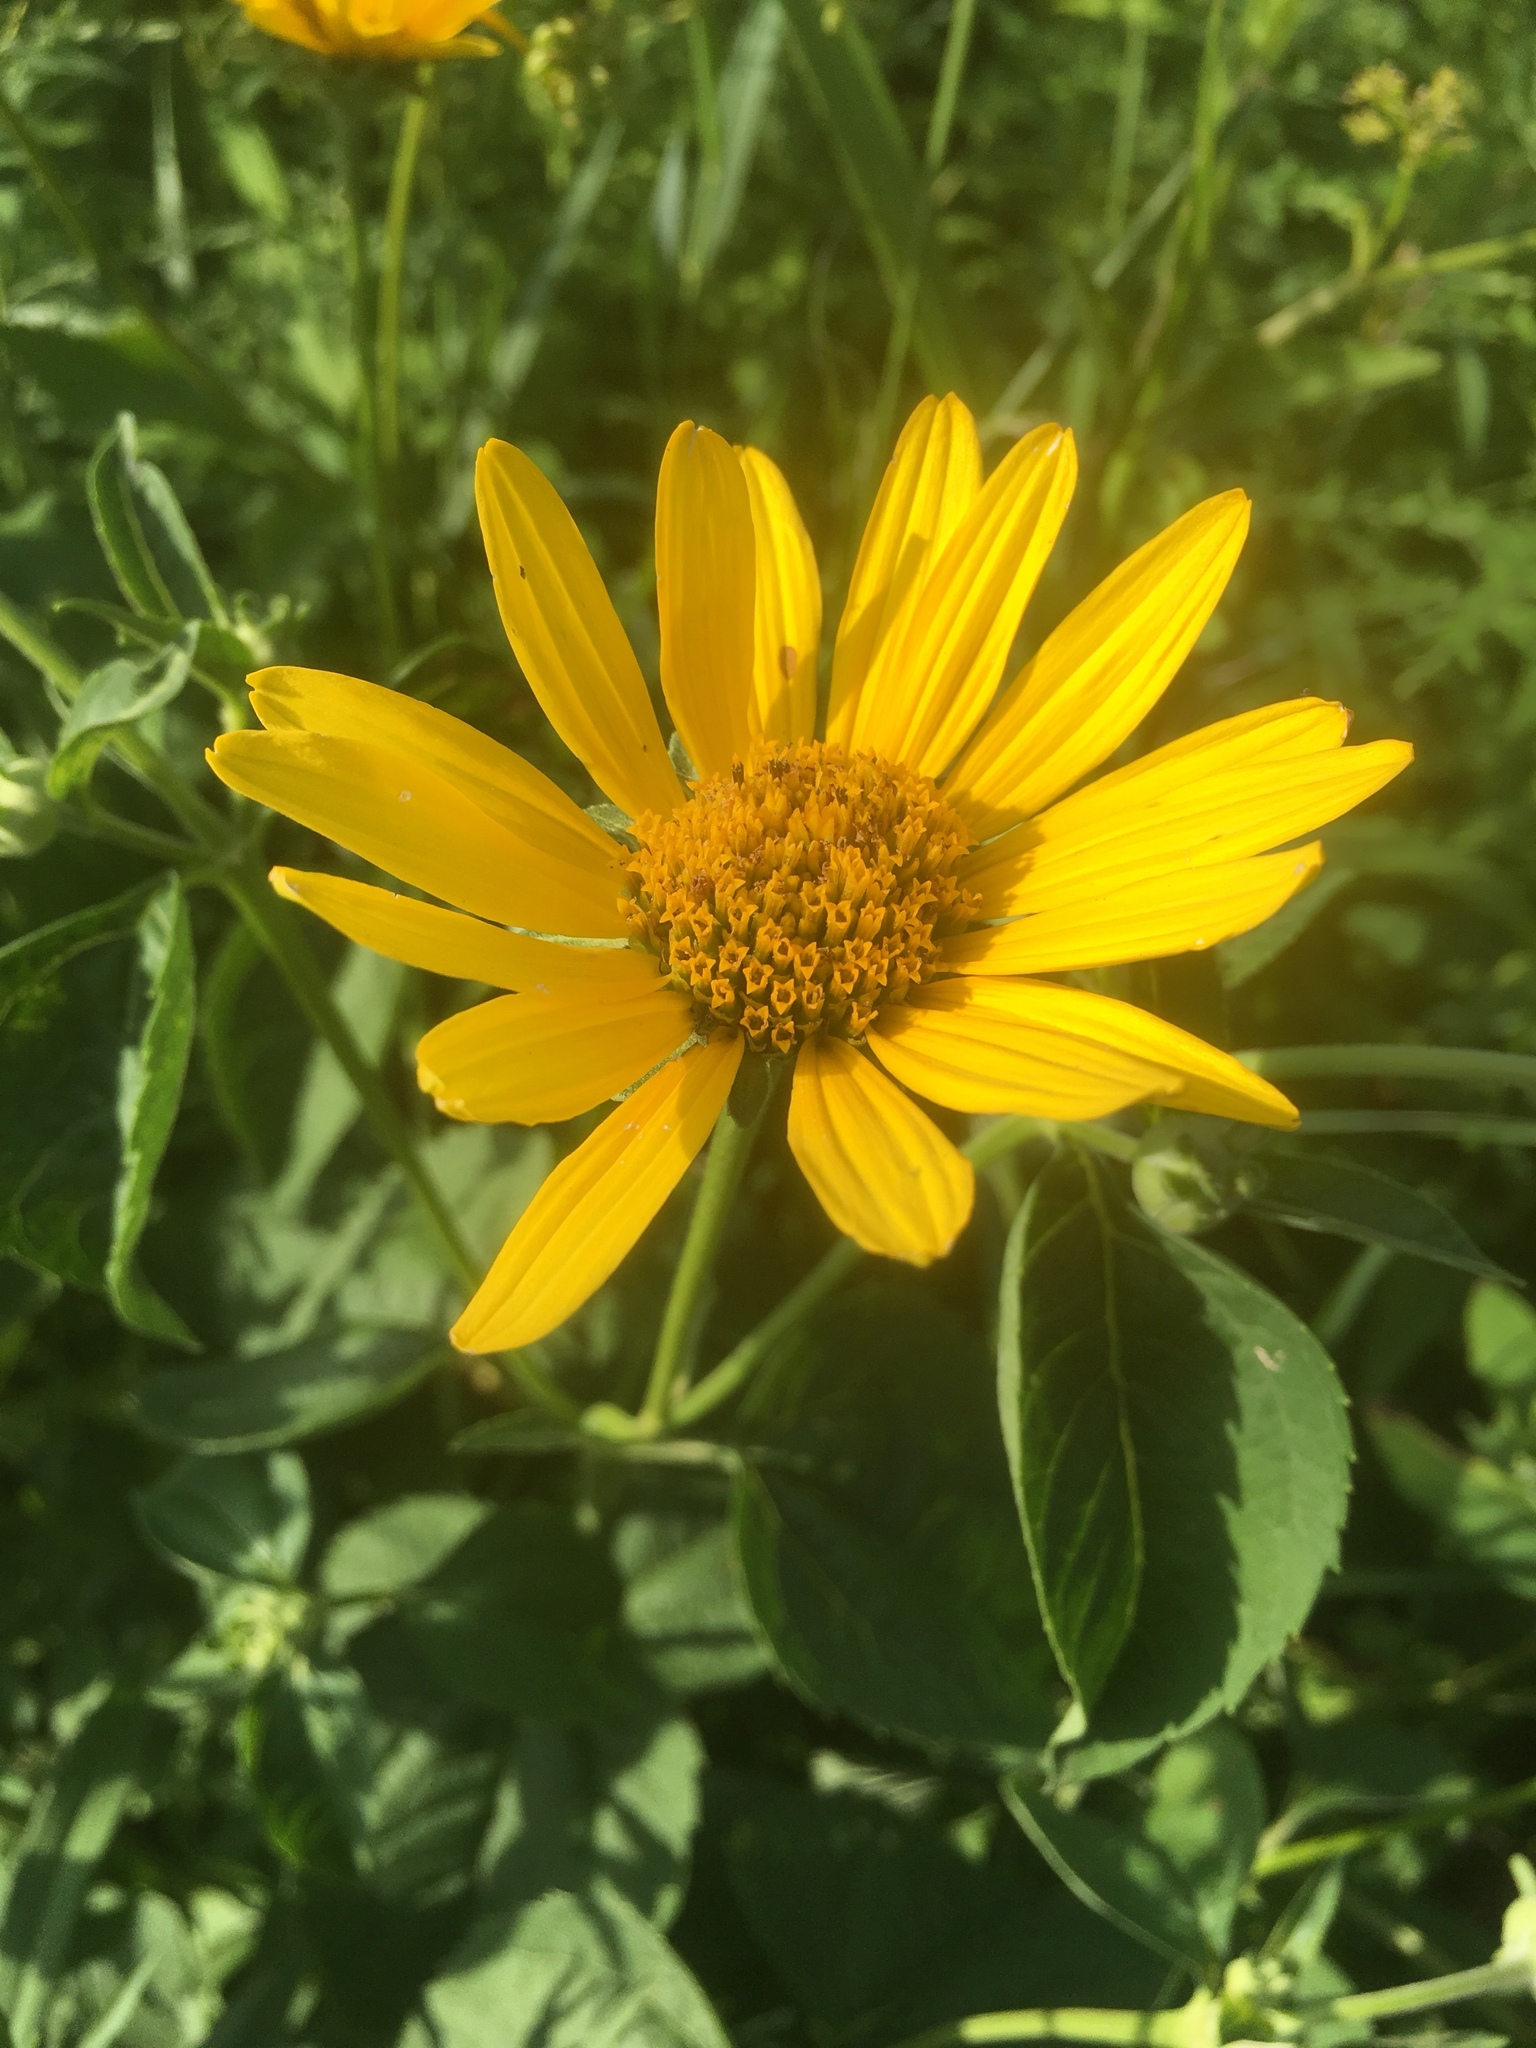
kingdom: Plantae
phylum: Tracheophyta
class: Magnoliopsida
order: Asterales
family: Asteraceae
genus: Heliopsis
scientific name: Heliopsis helianthoides
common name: False sunflower
